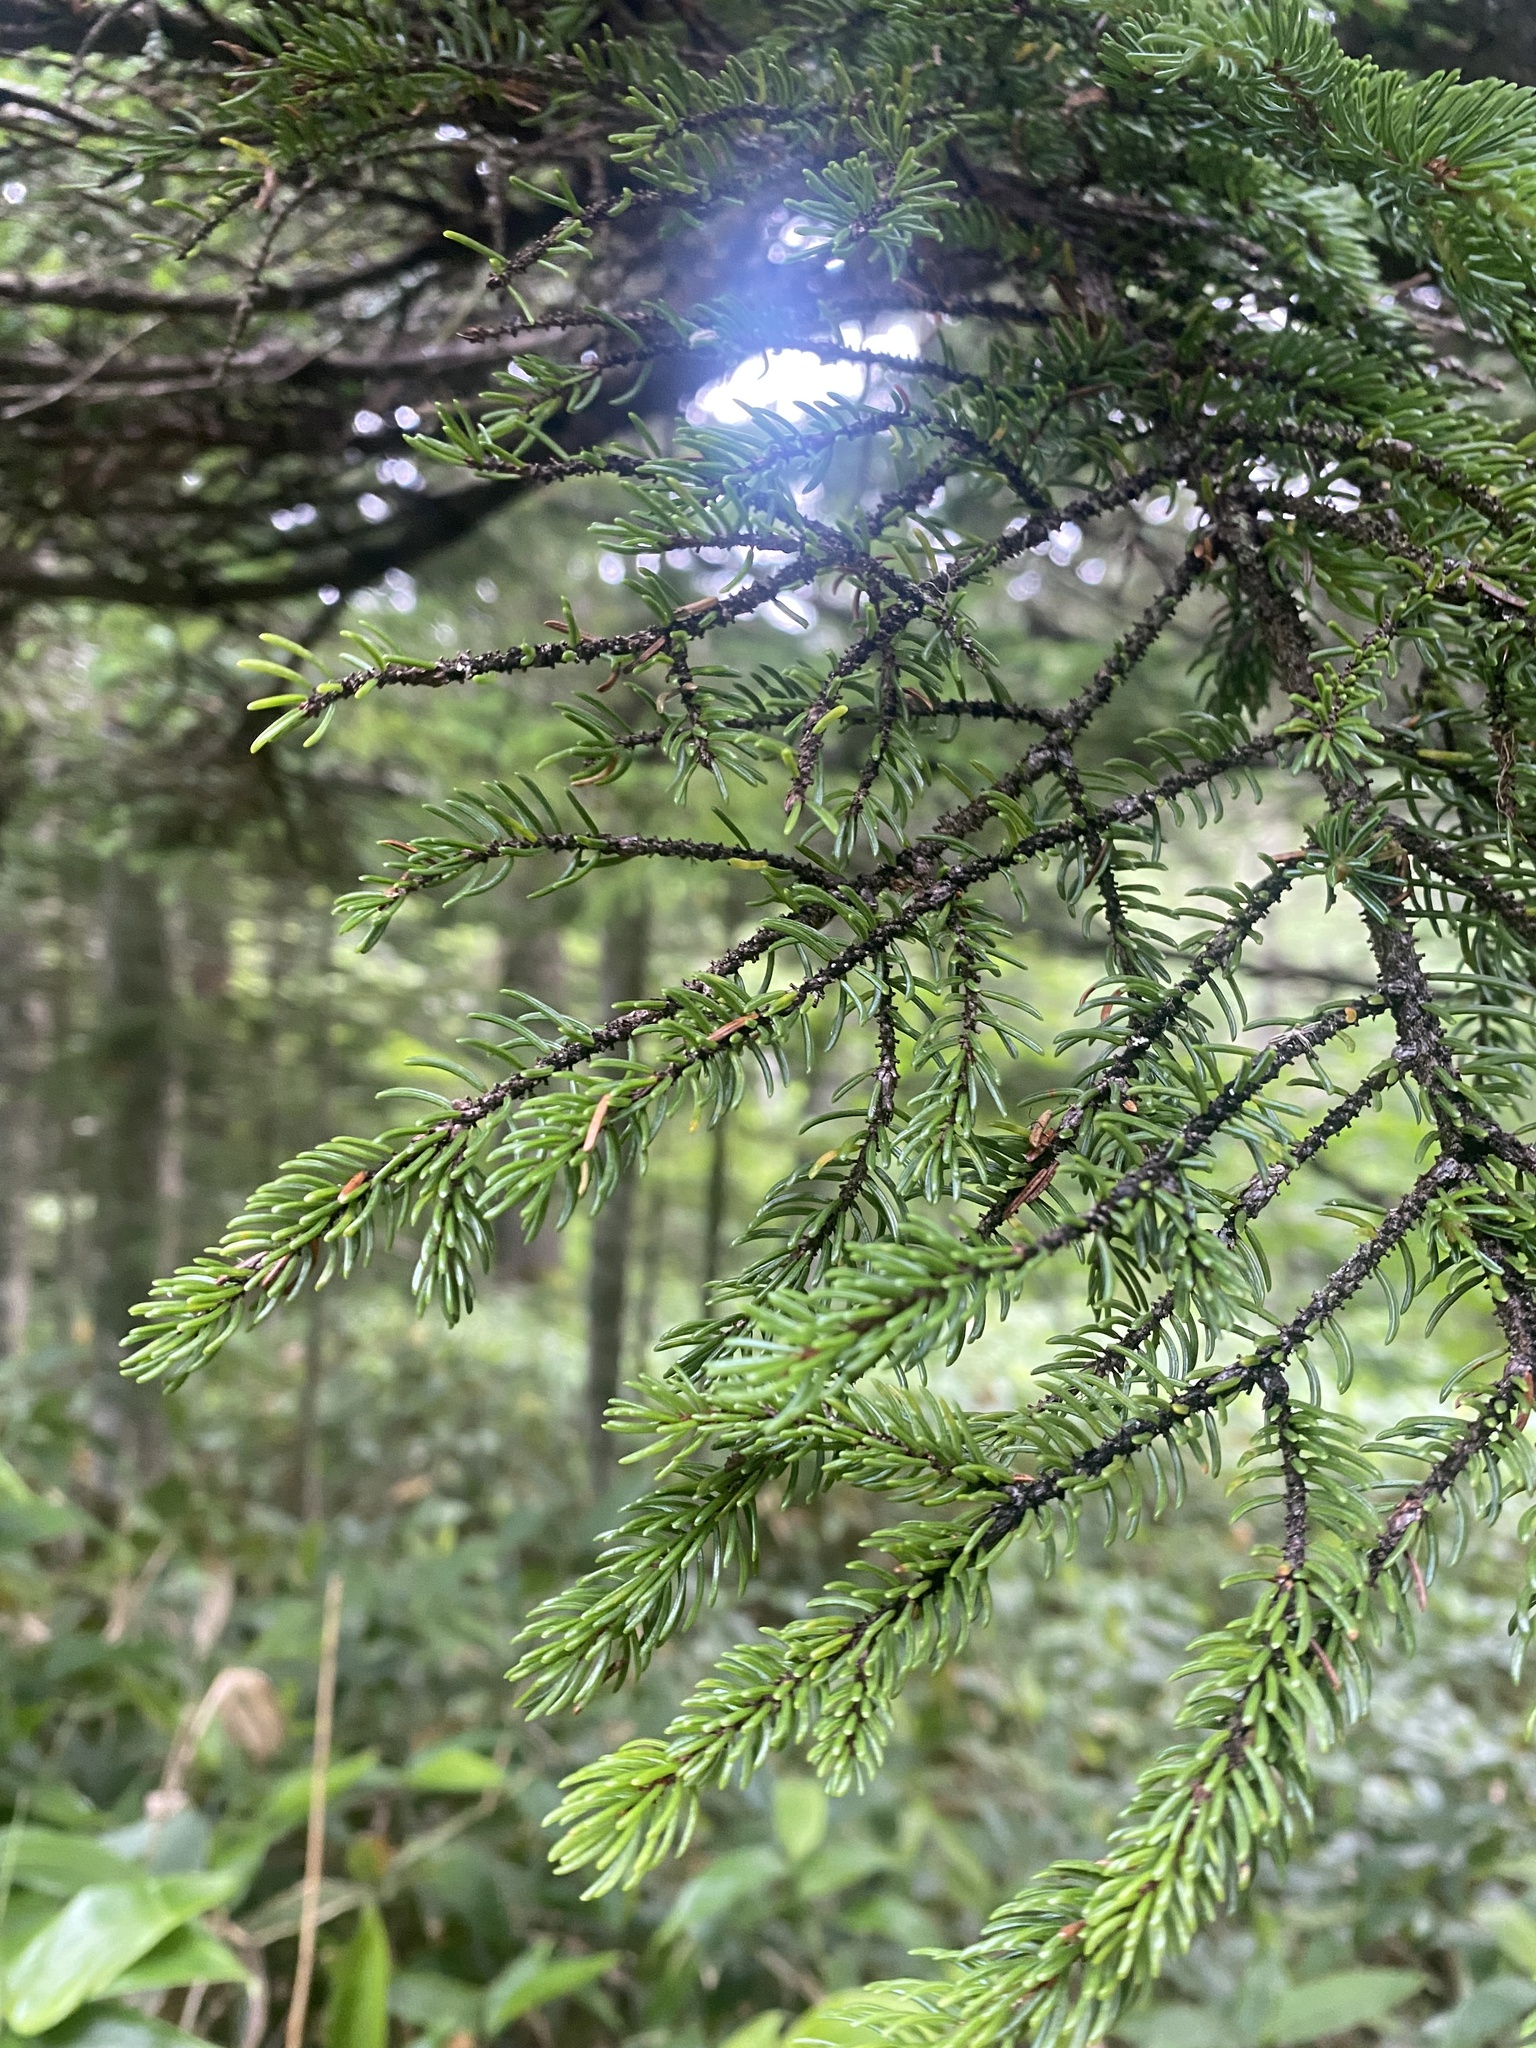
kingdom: Plantae
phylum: Tracheophyta
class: Pinopsida
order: Pinales
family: Pinaceae
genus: Picea
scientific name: Picea jezoensis
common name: Yeddo spruce
